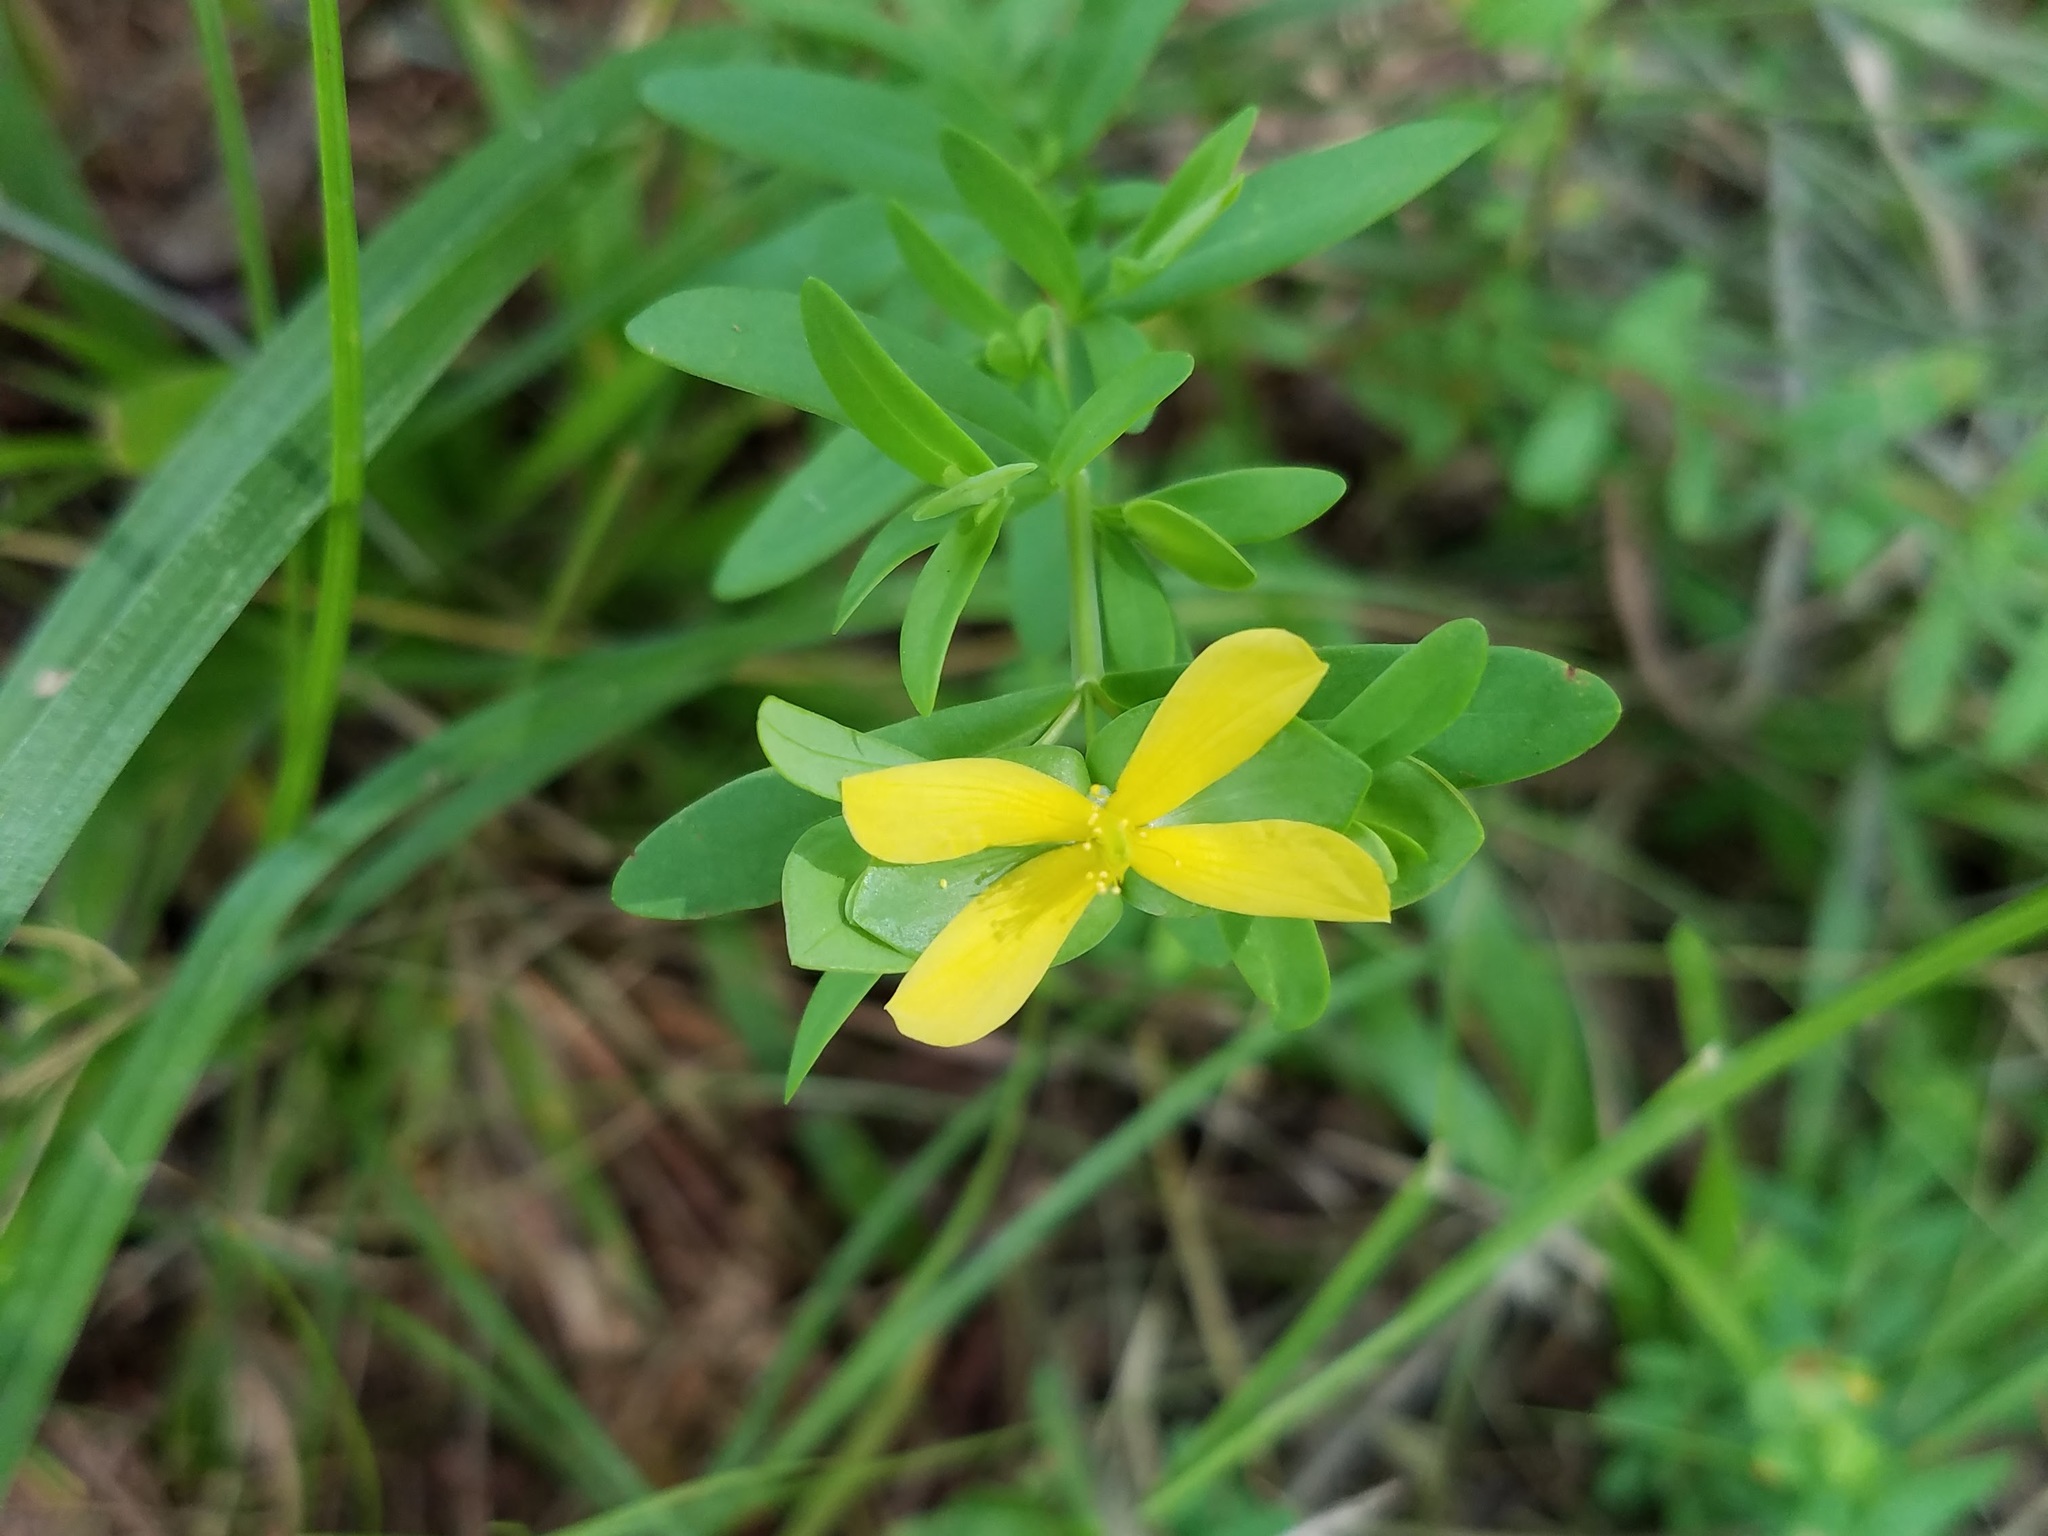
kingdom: Plantae
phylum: Tracheophyta
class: Magnoliopsida
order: Malpighiales
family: Hypericaceae
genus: Hypericum
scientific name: Hypericum hypericoides
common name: St. andrew's cross
